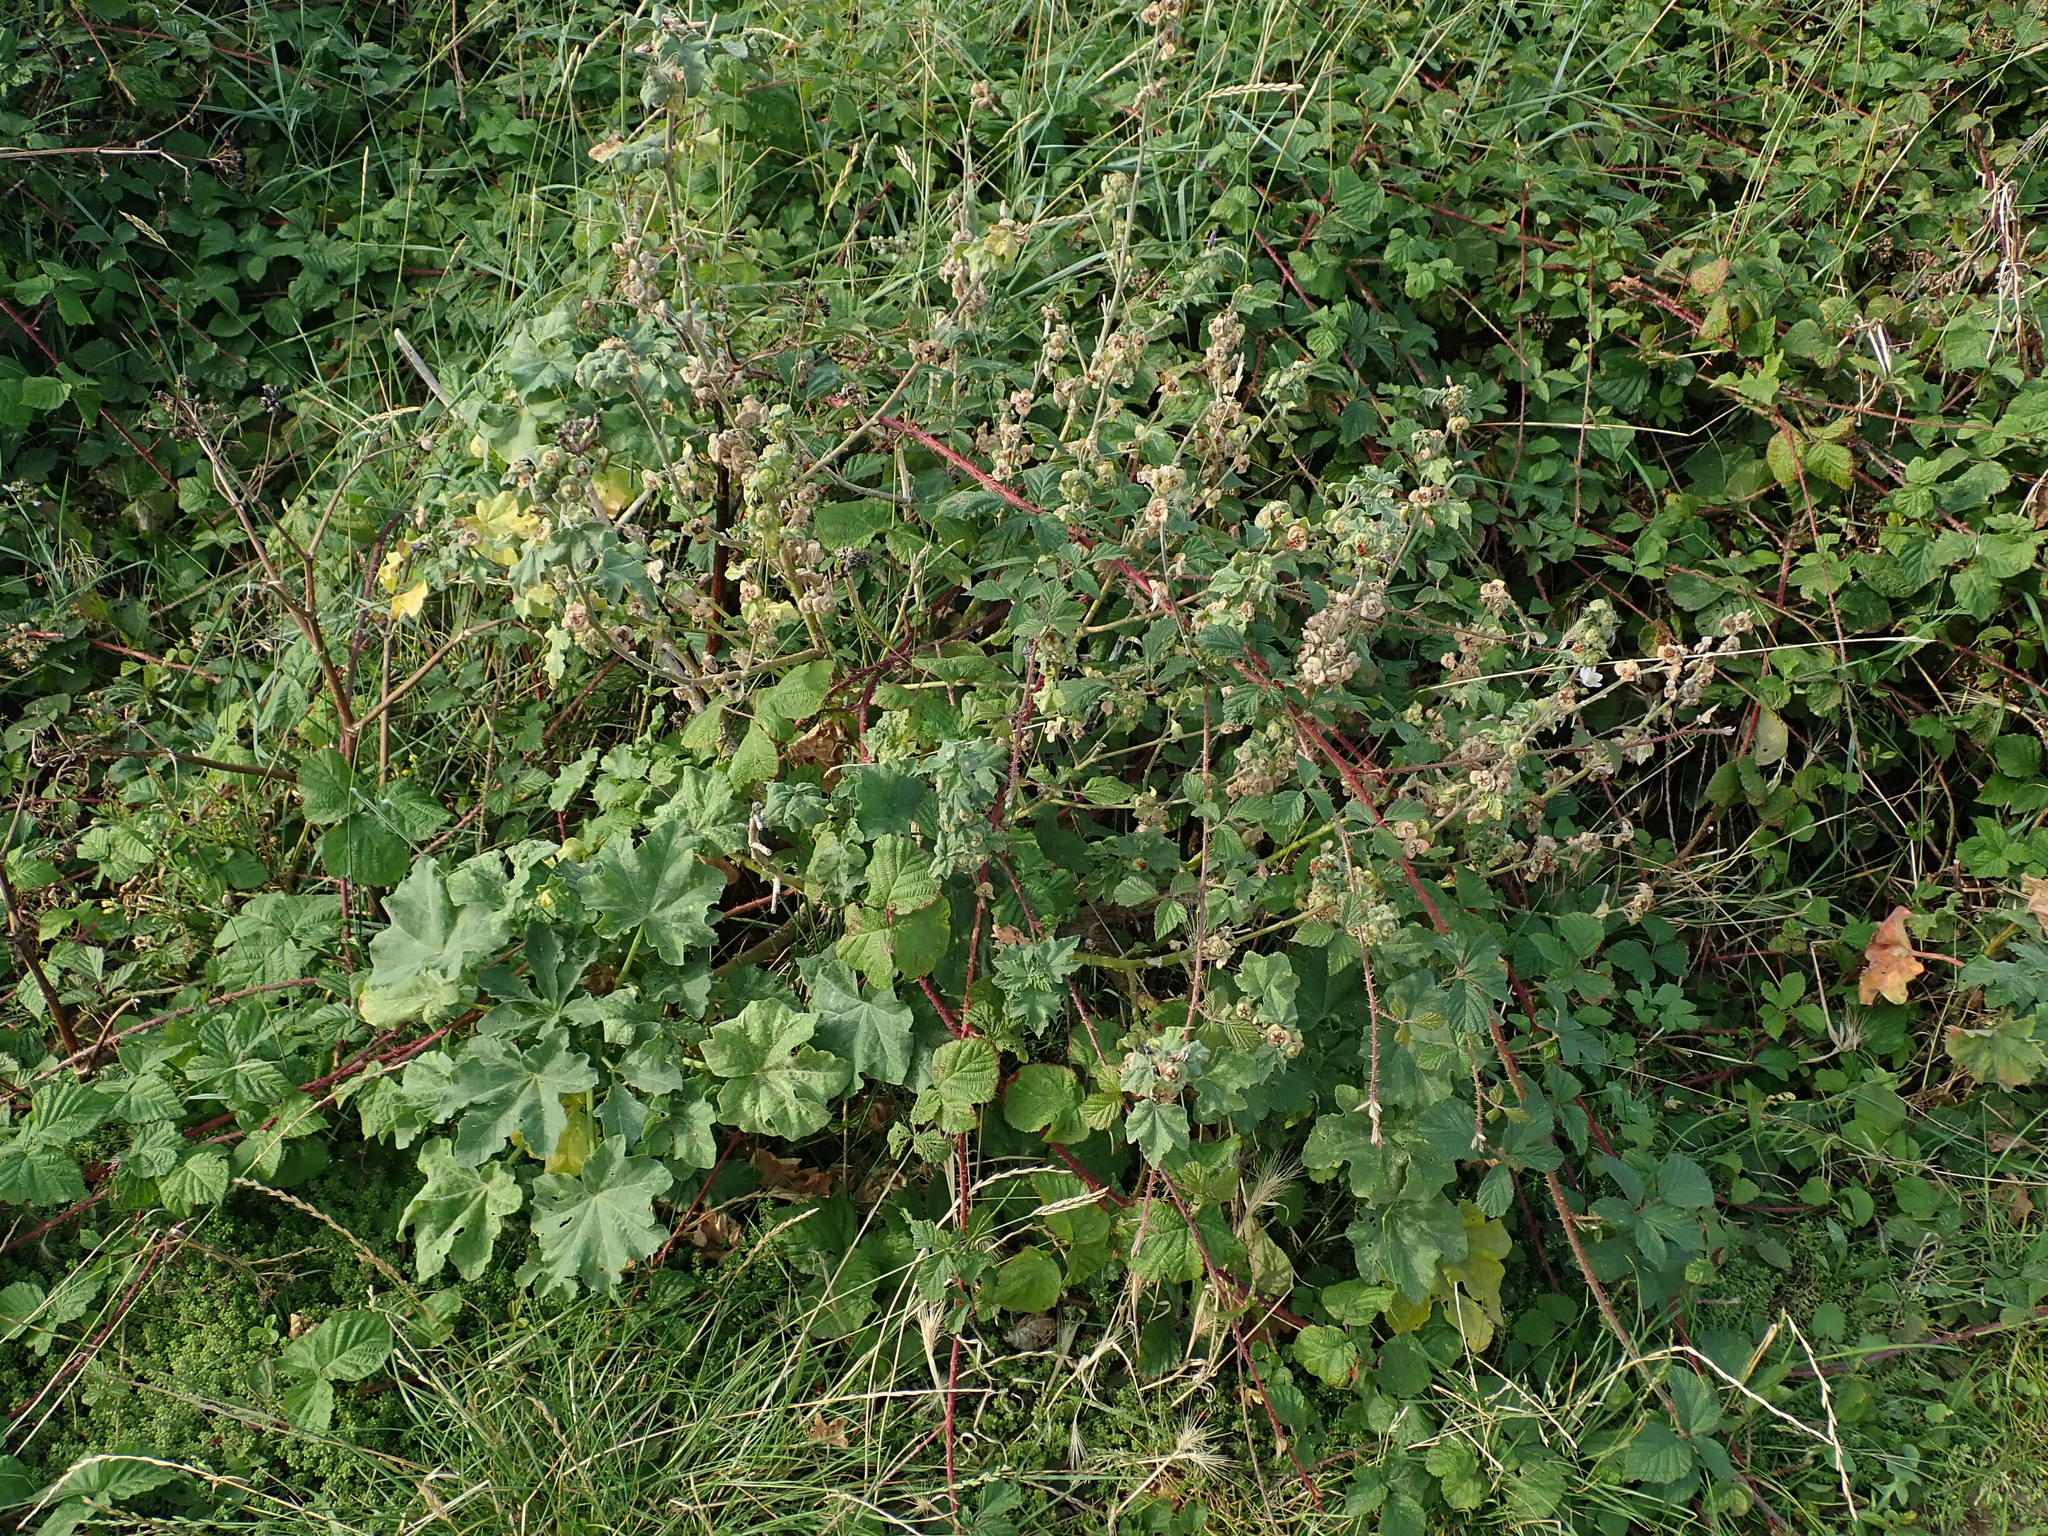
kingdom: Plantae
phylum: Tracheophyta
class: Magnoliopsida
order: Malvales
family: Malvaceae
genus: Malva
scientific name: Malva arborea
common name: Tree mallow
